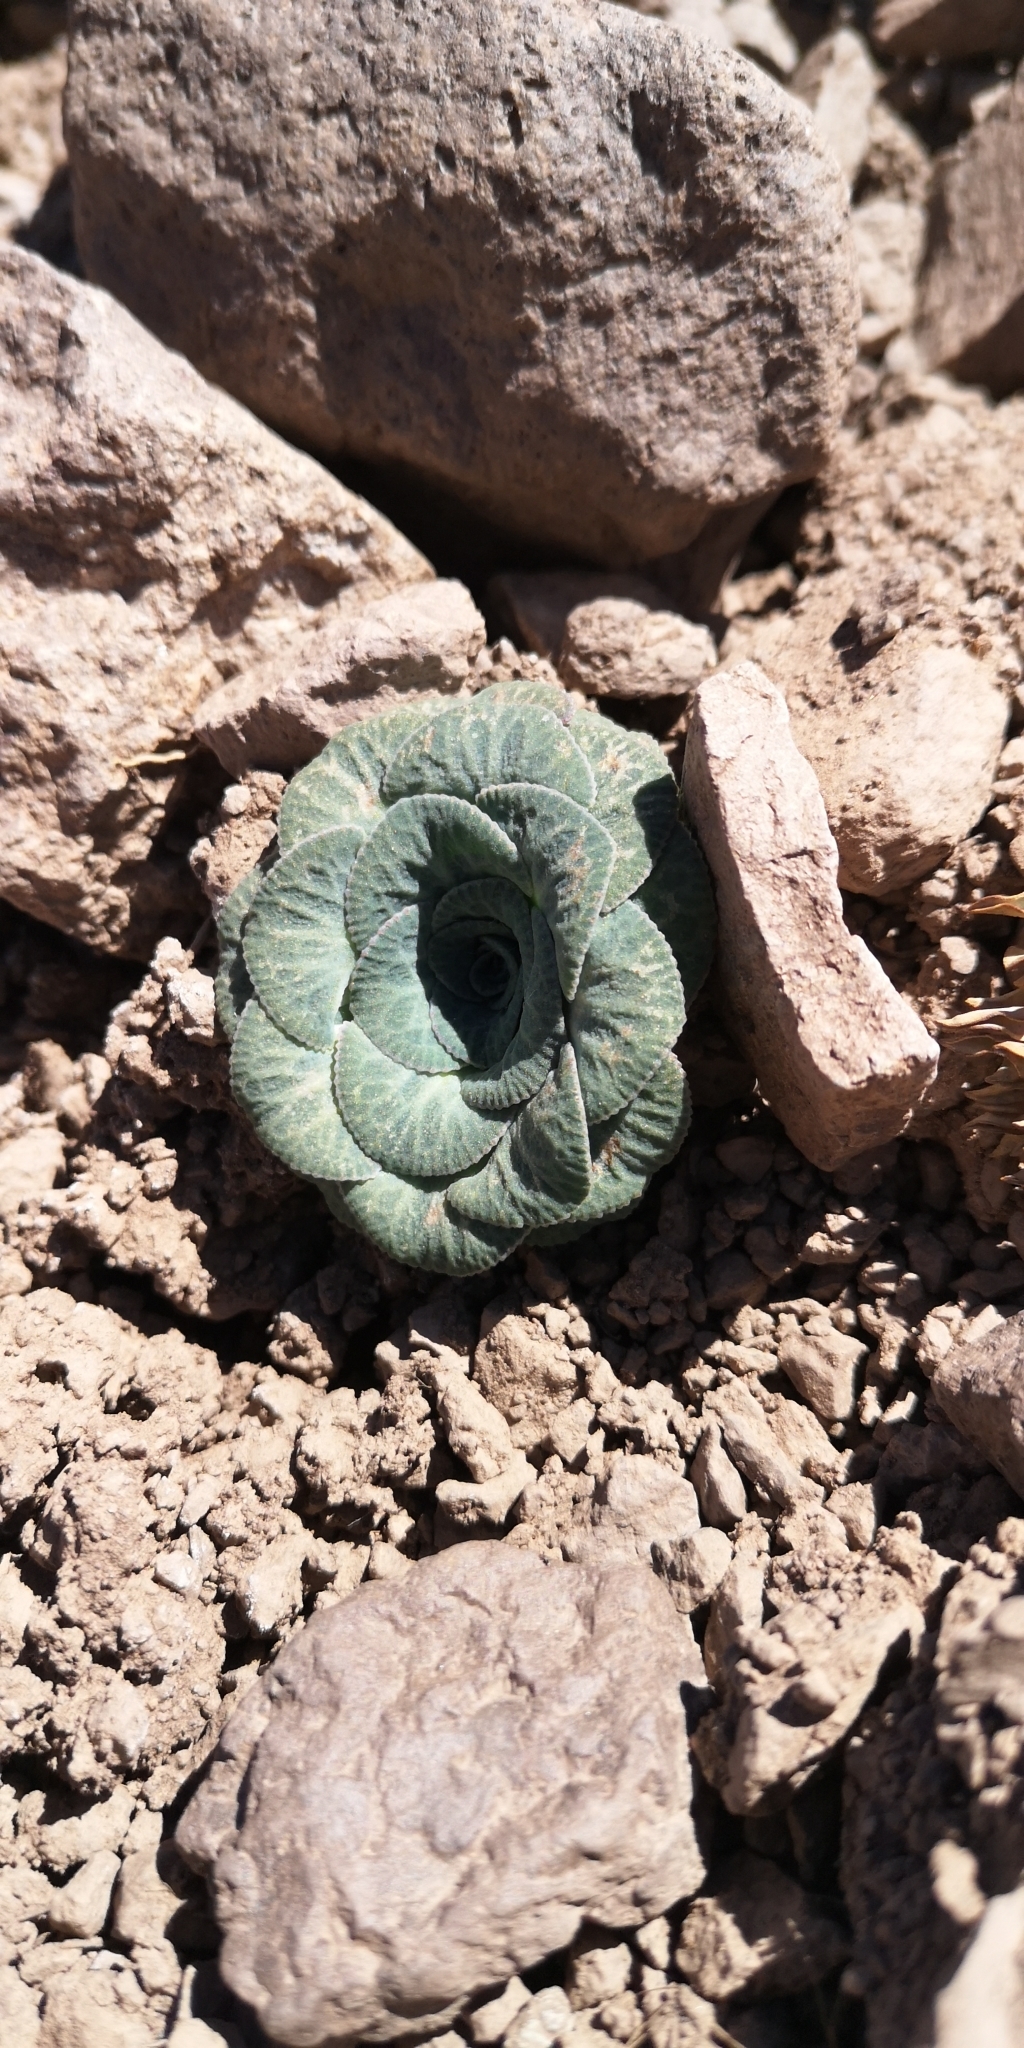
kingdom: Plantae
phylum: Tracheophyta
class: Magnoliopsida
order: Asterales
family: Asteraceae
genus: Chaetanthera
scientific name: Chaetanthera renifolia
